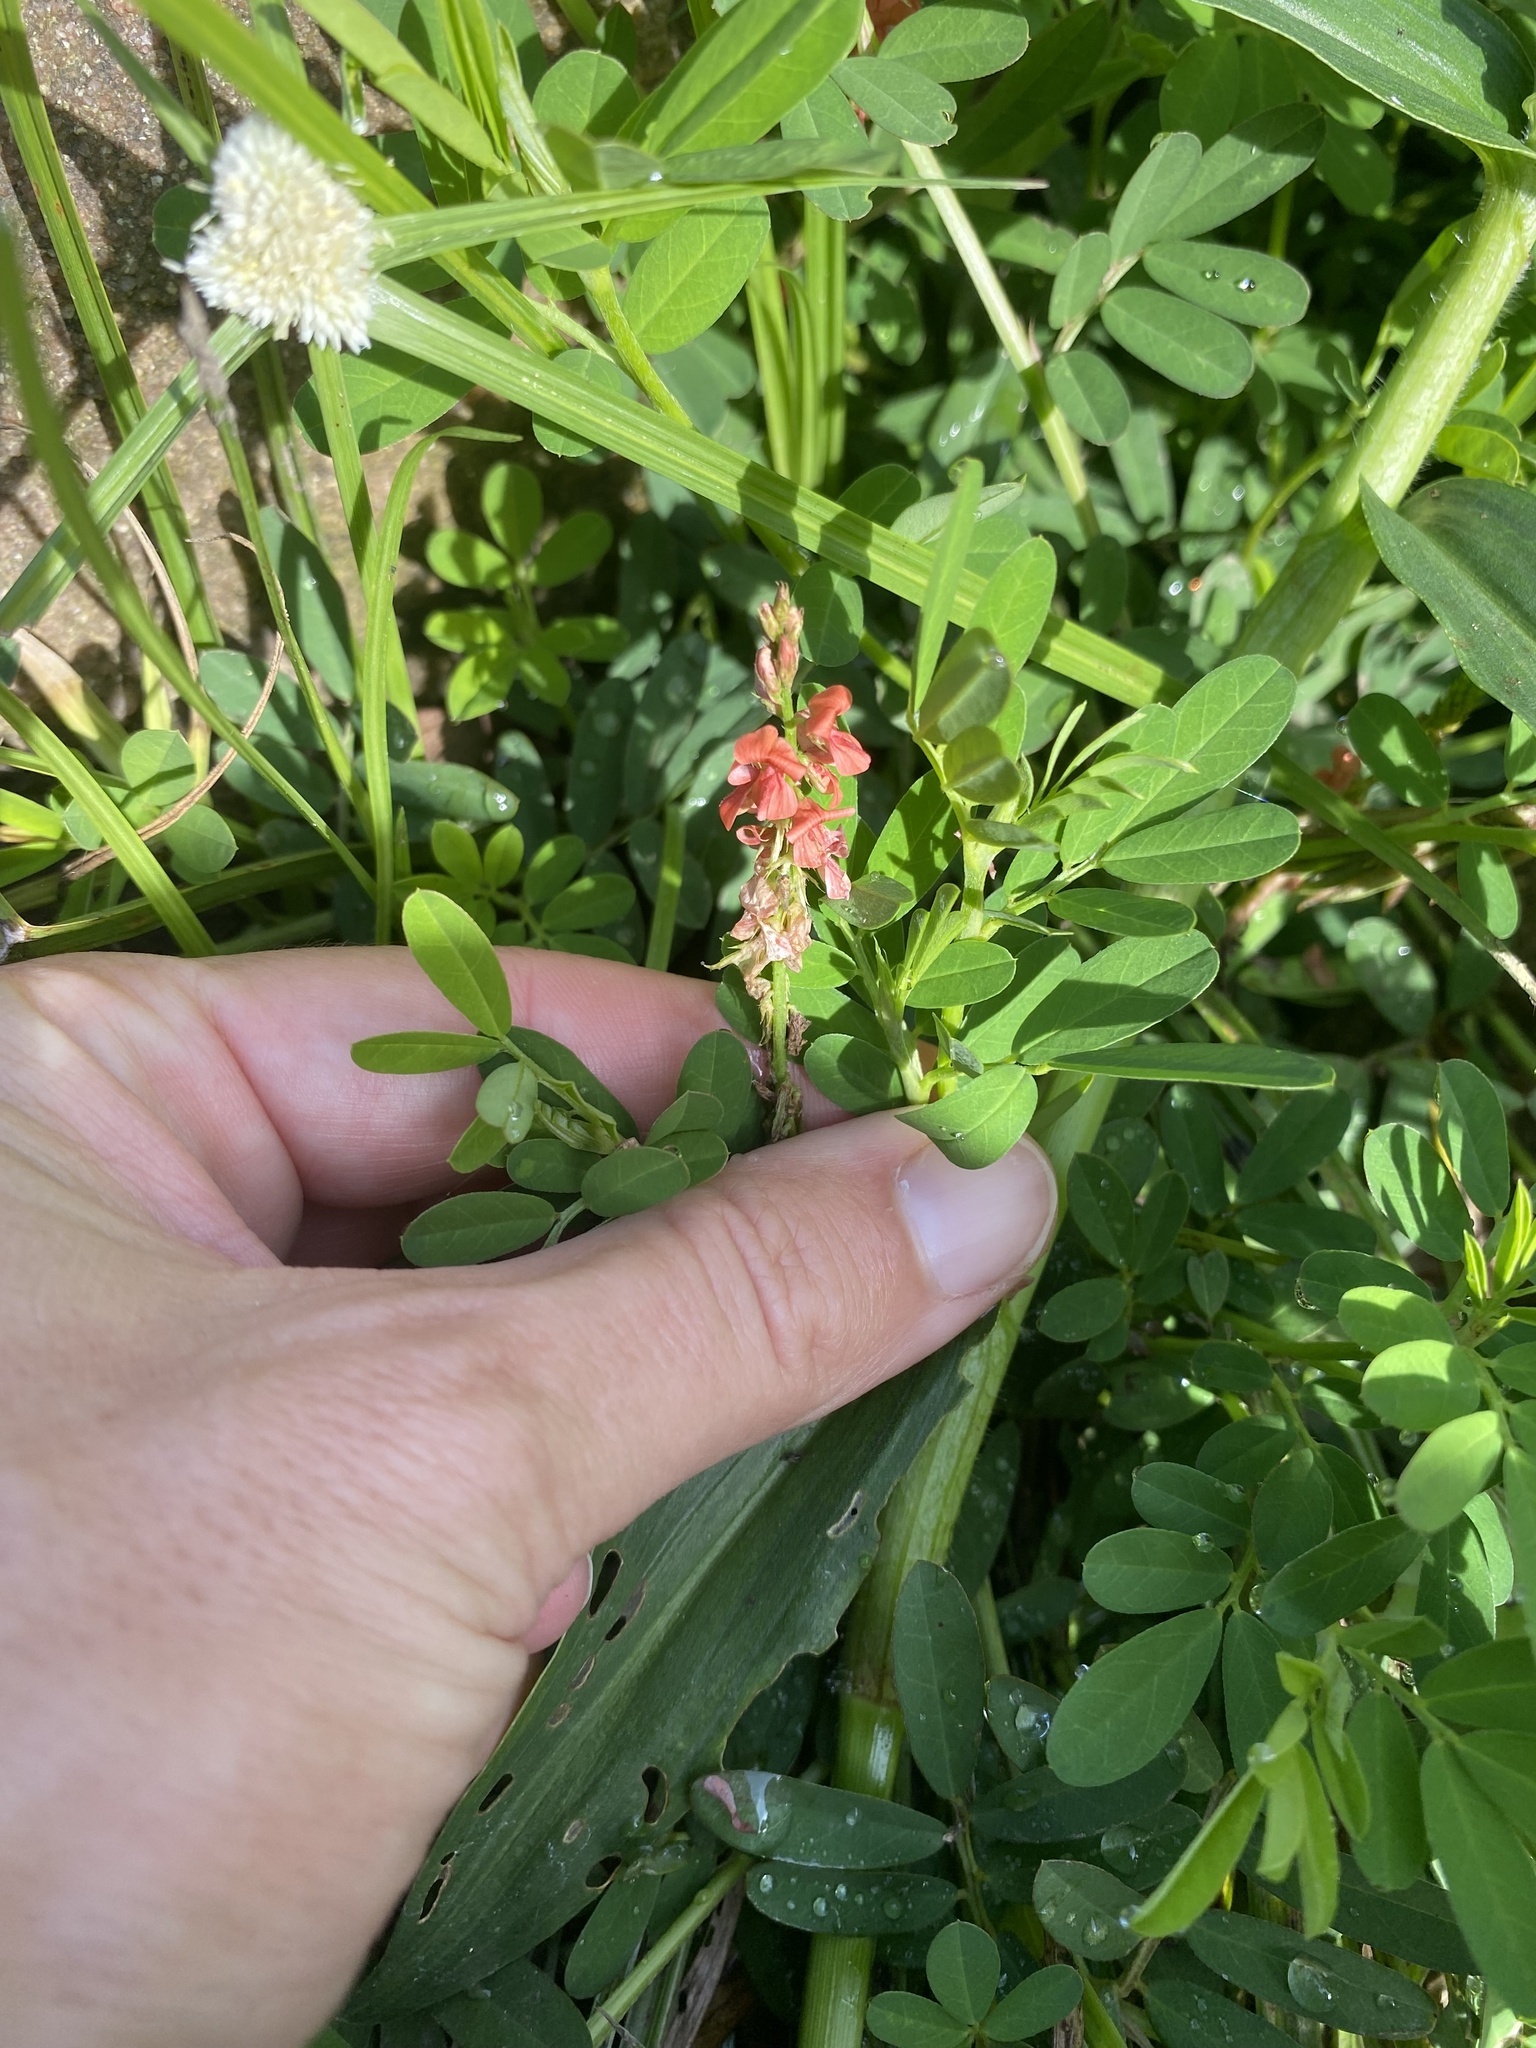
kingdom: Plantae
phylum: Tracheophyta
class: Magnoliopsida
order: Fabales
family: Fabaceae
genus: Indigofera
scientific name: Indigofera hendecaphylla
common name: Trailing indigo
